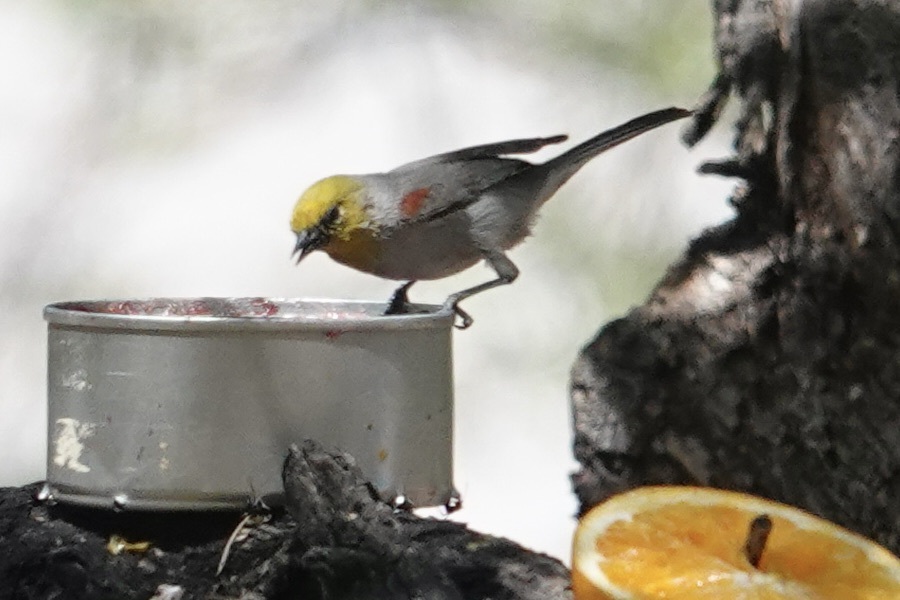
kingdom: Animalia
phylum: Chordata
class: Aves
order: Passeriformes
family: Remizidae
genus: Auriparus
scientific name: Auriparus flaviceps
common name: Verdin
